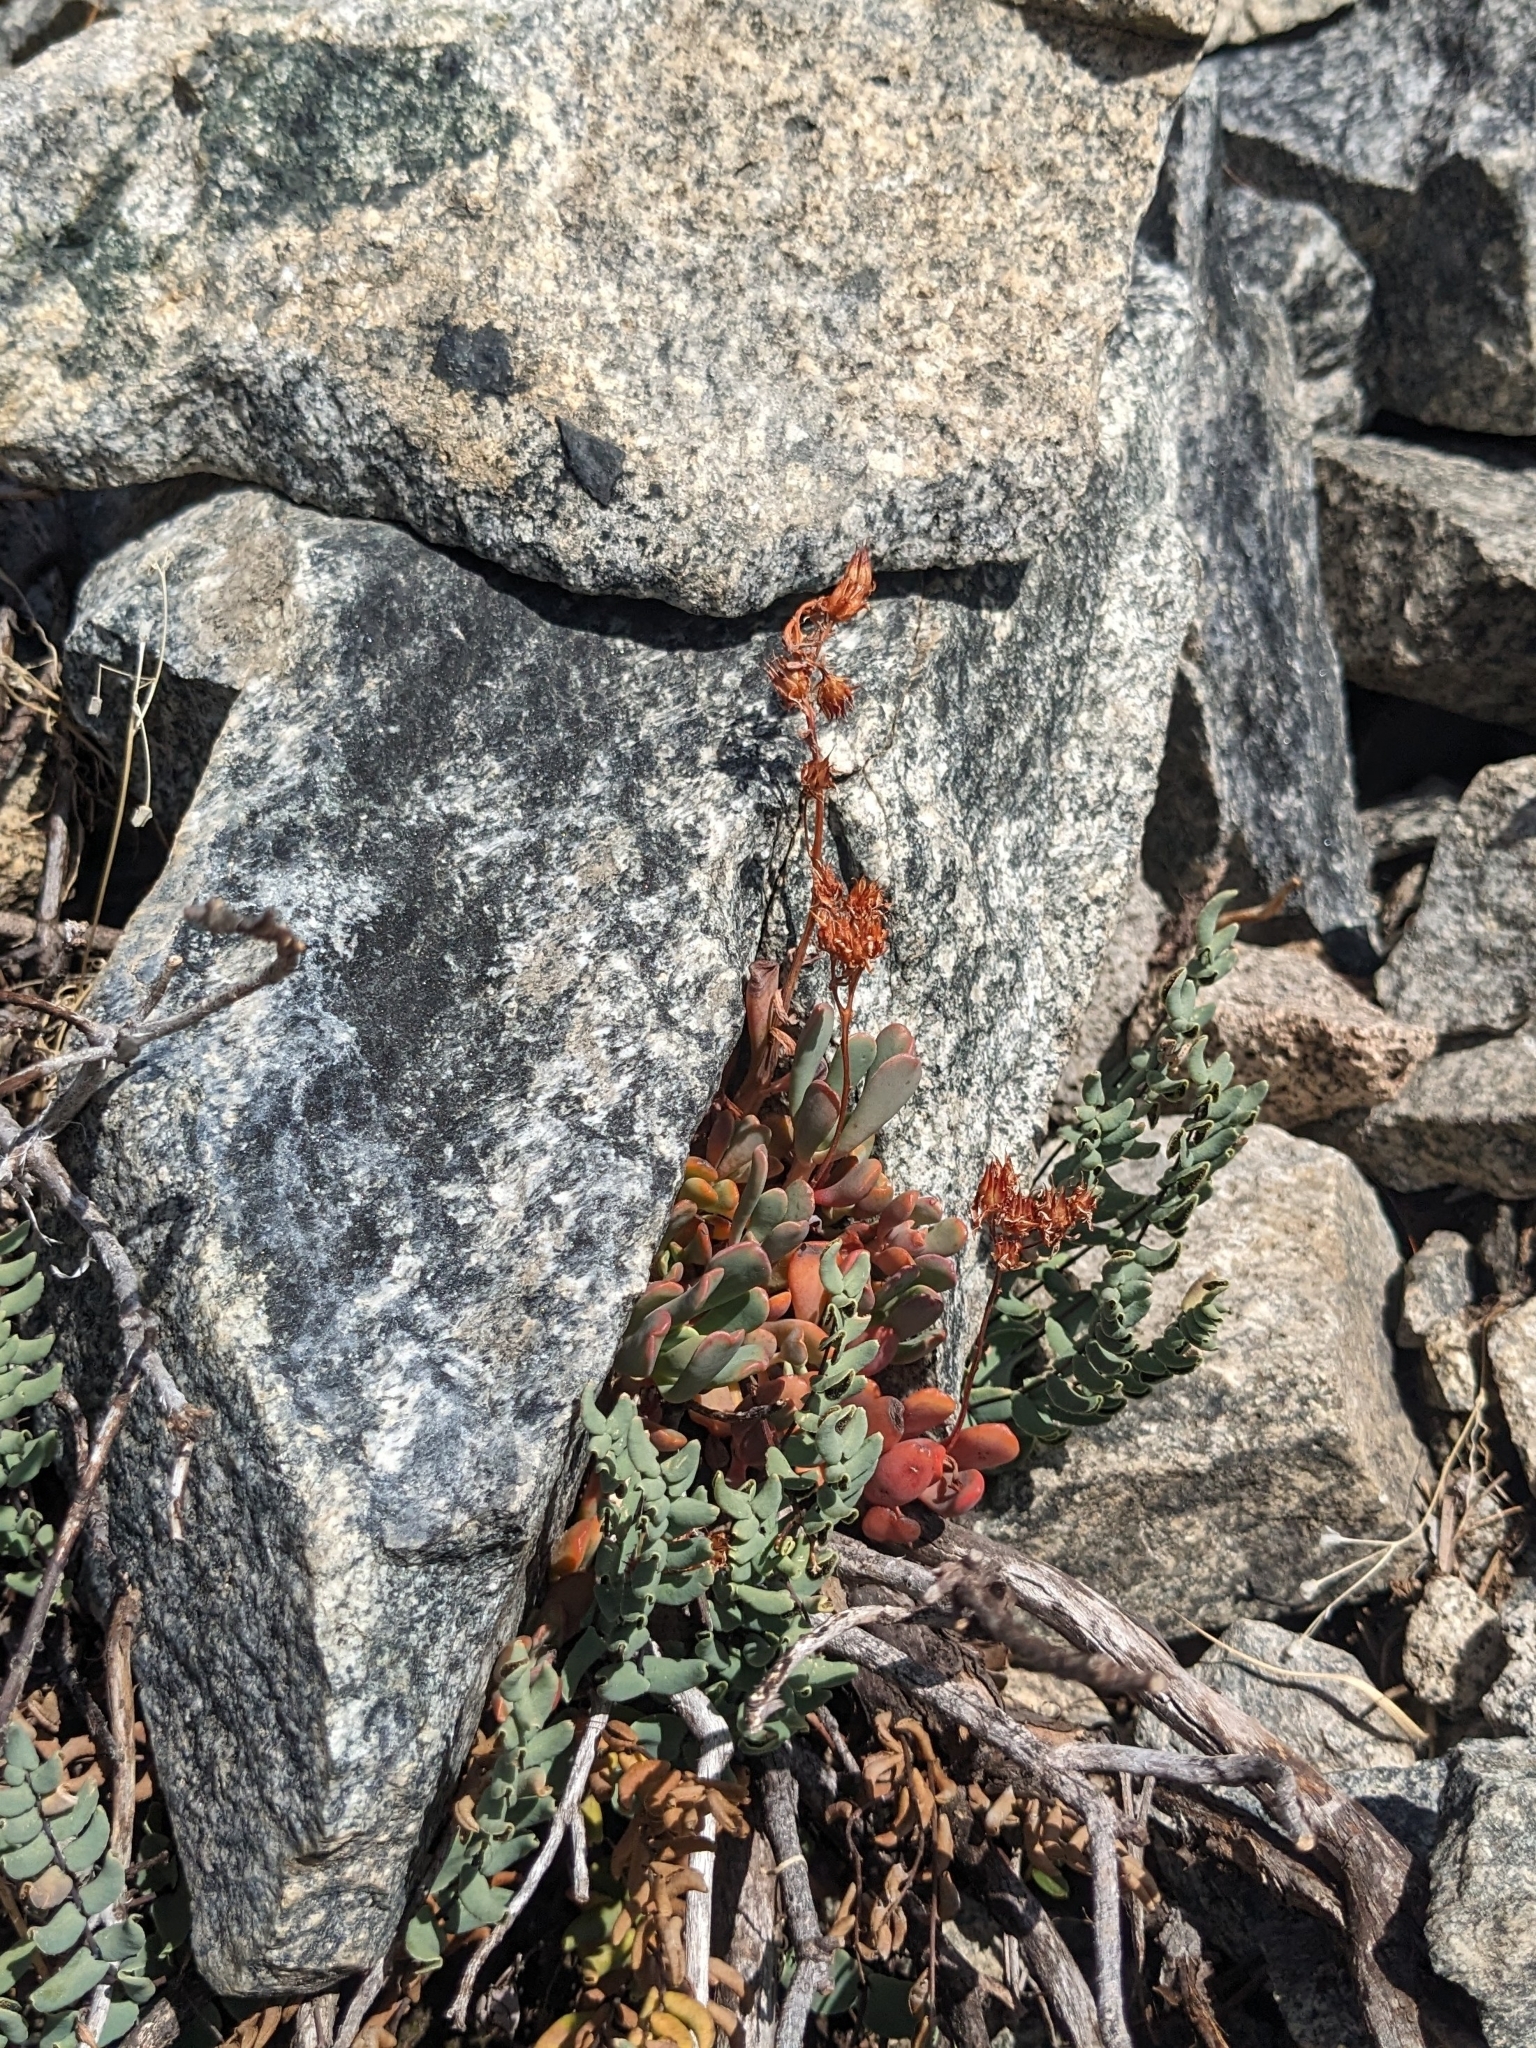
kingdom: Plantae
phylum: Tracheophyta
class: Magnoliopsida
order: Saxifragales
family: Crassulaceae
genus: Sedum
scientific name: Sedum obtusatum
